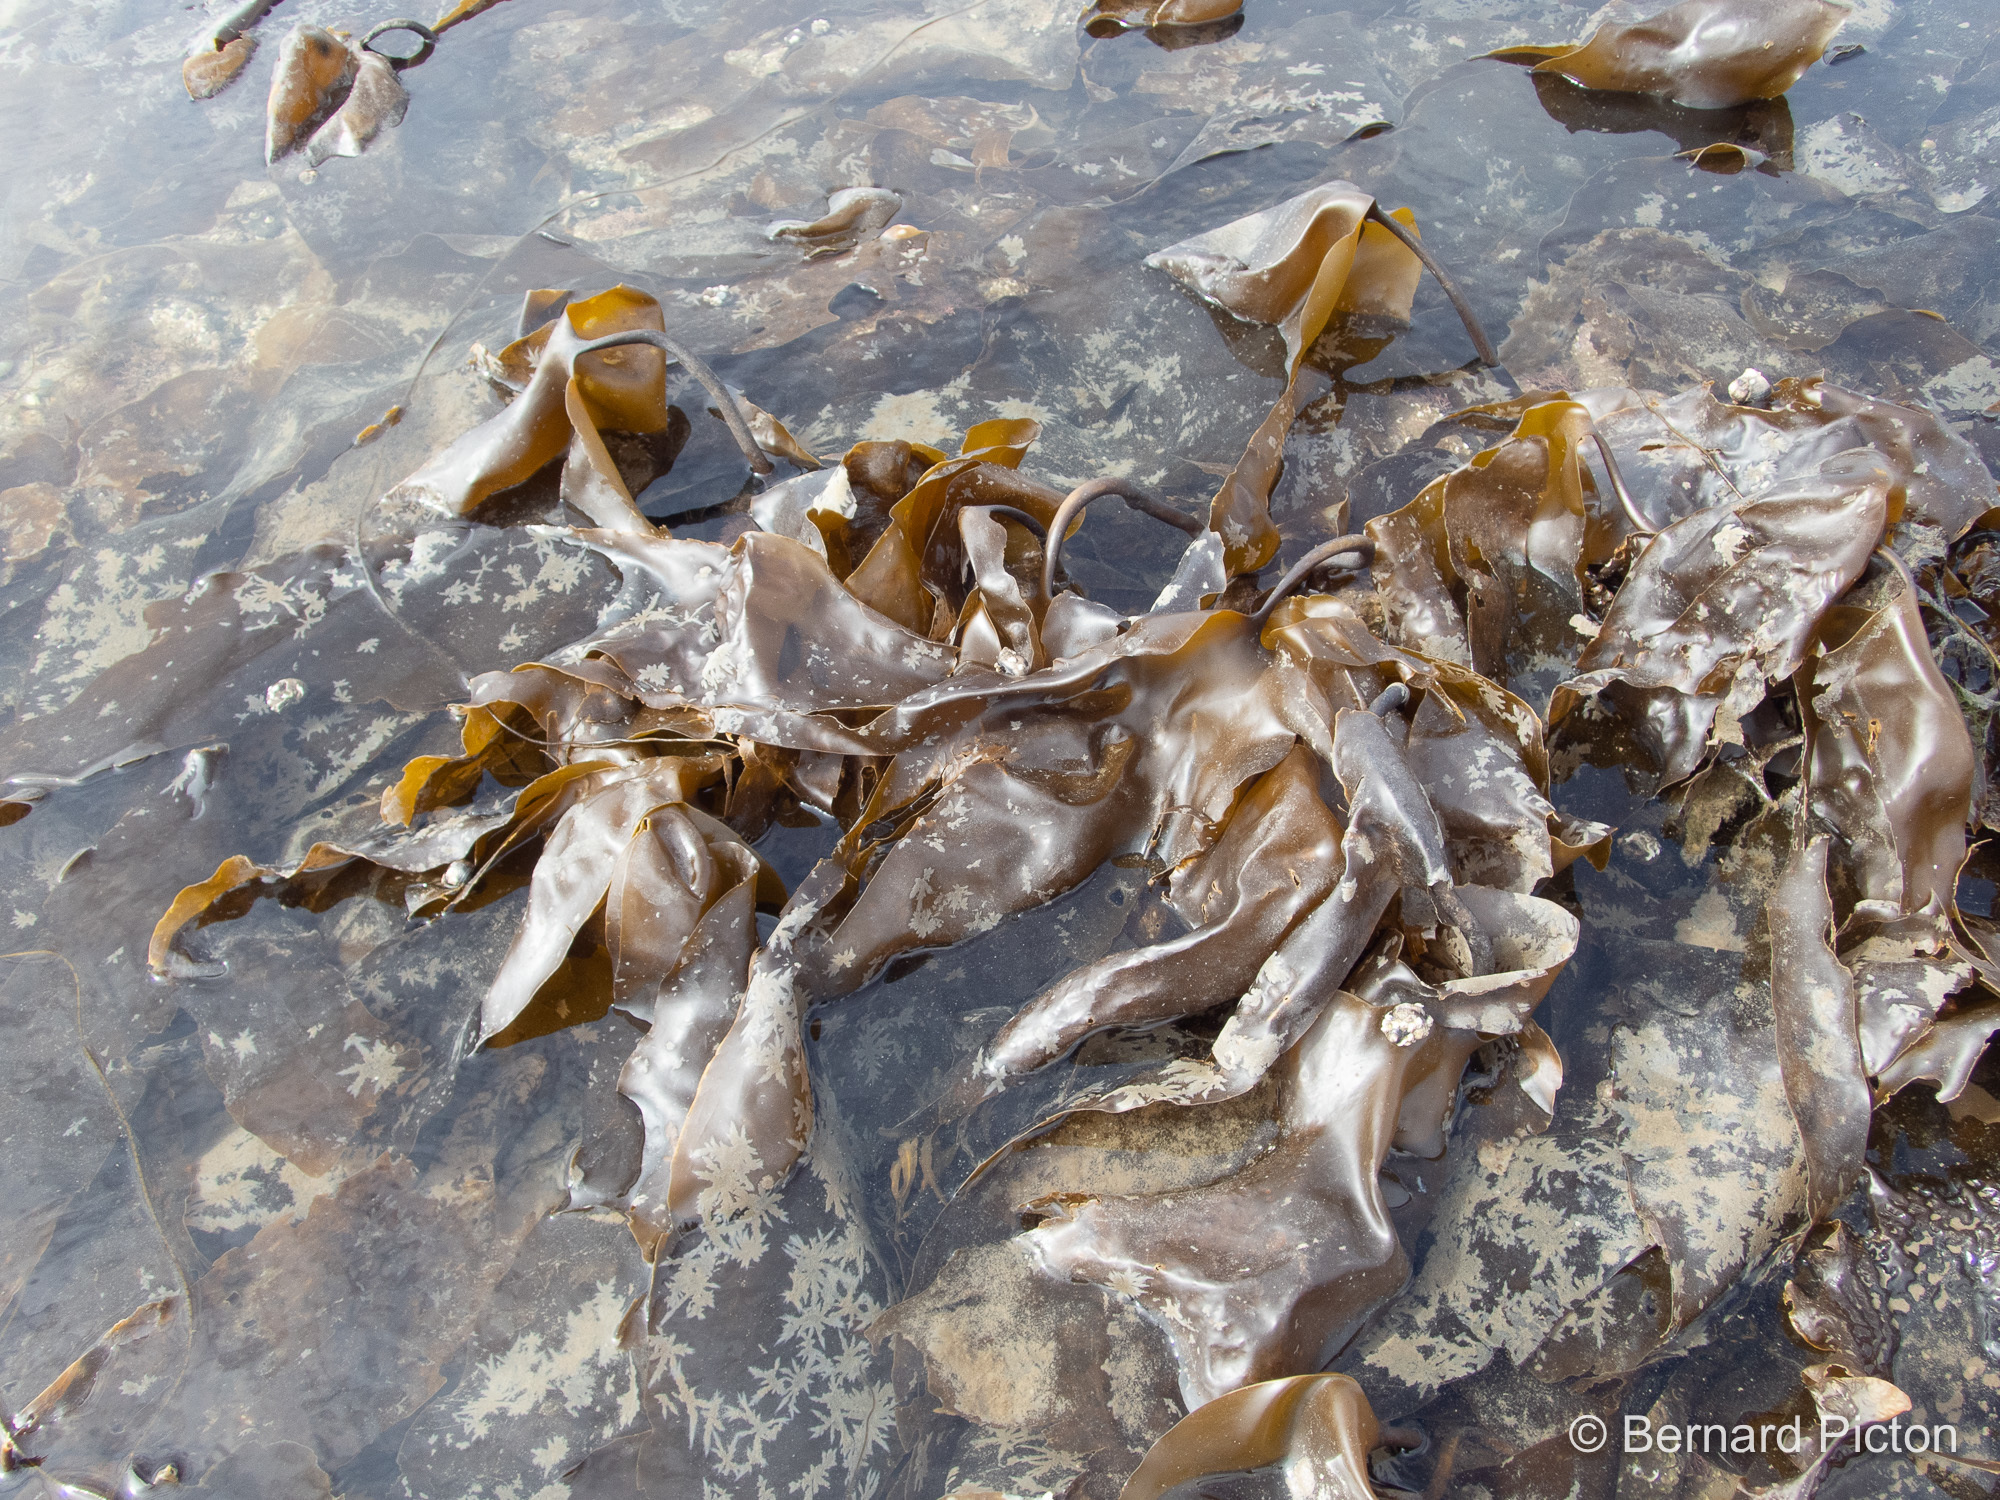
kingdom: Chromista
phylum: Ochrophyta
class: Phaeophyceae
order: Laminariales
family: Laminariaceae
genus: Laminaria
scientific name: Laminaria digitata
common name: Oarweed
